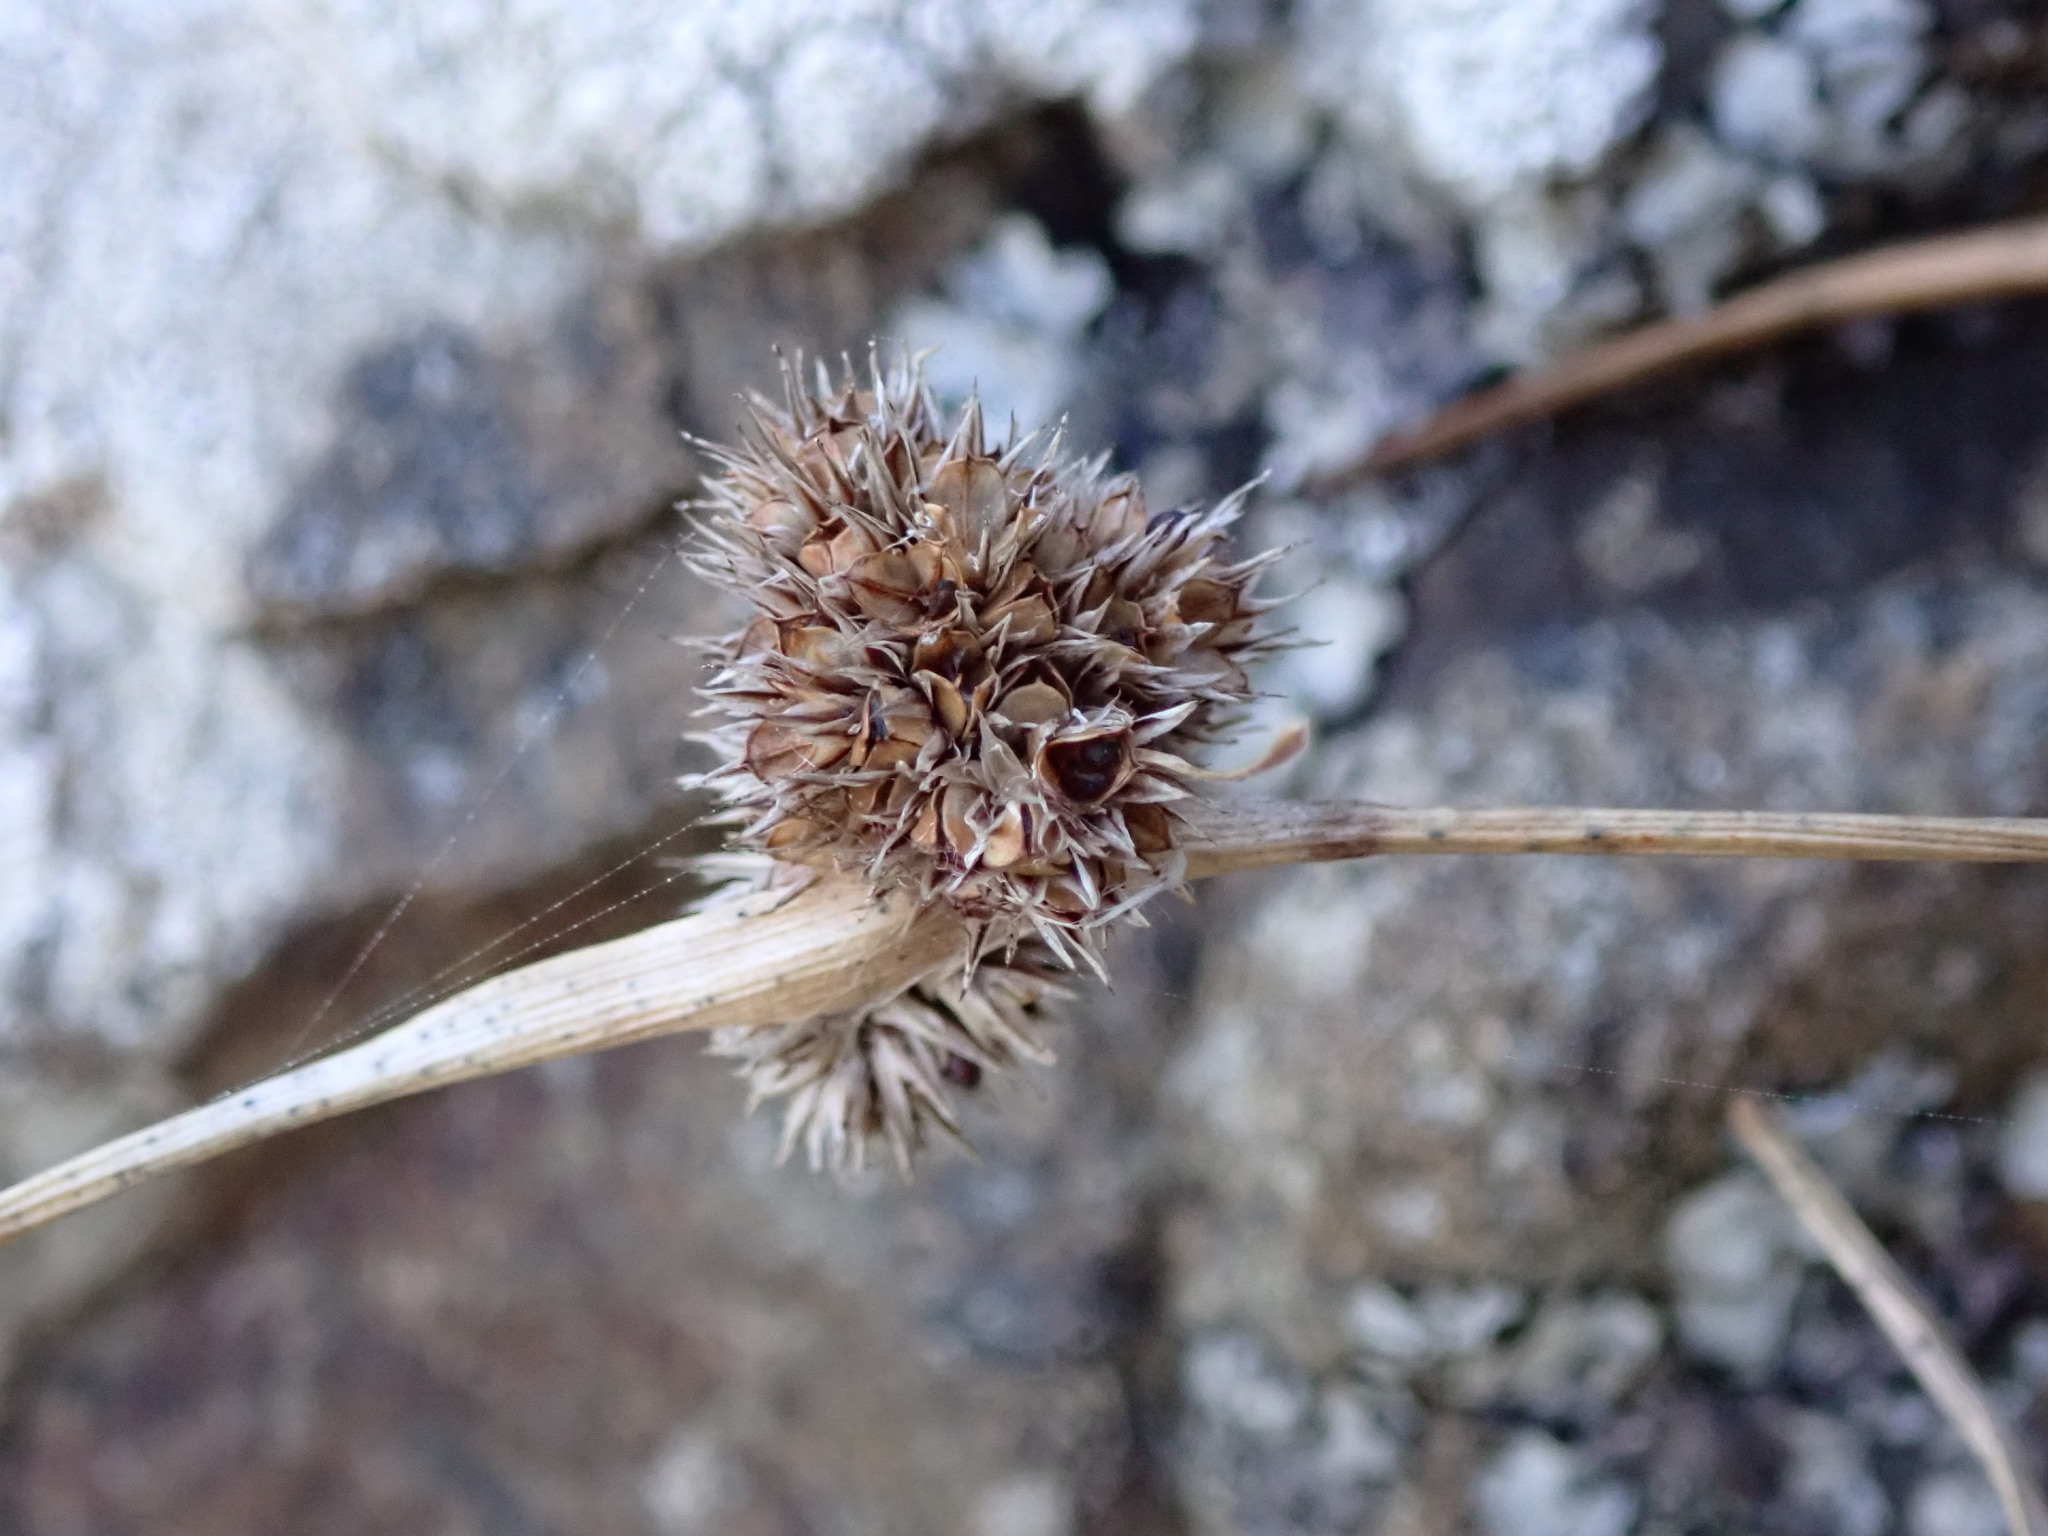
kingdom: Plantae
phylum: Tracheophyta
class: Liliopsida
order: Poales
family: Juncaceae
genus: Luzula
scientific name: Luzula banksiana
